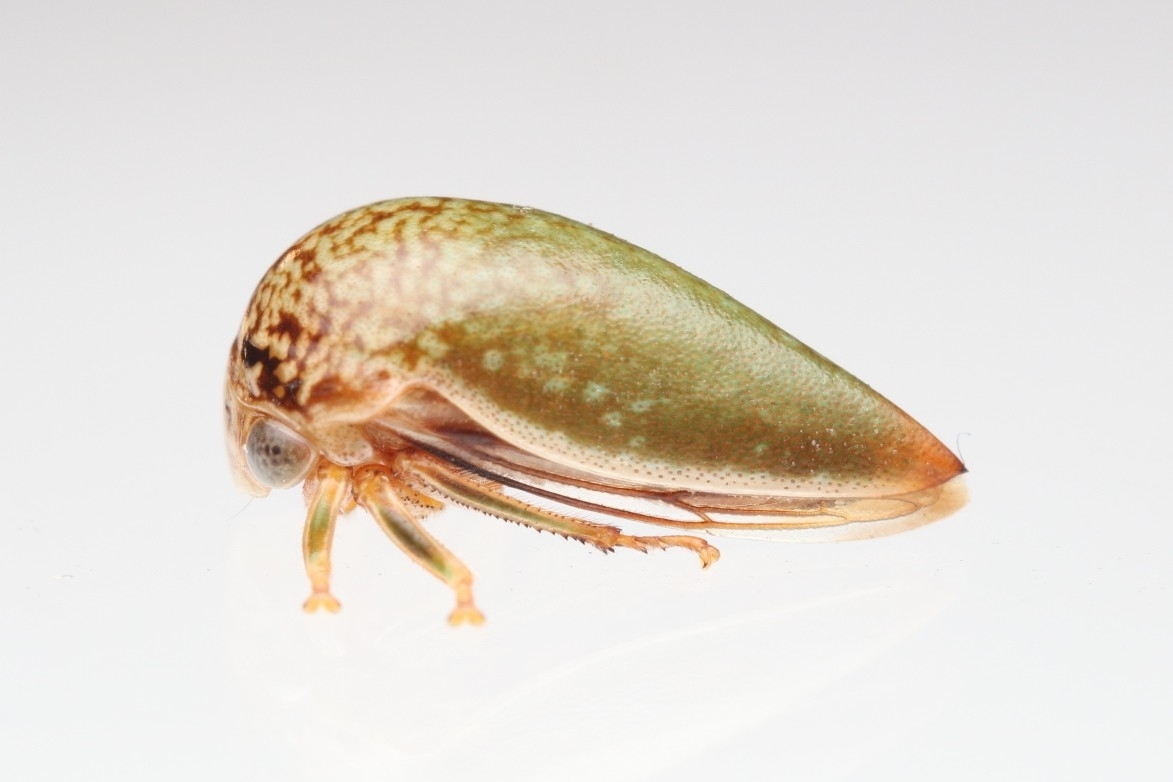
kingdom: Animalia
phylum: Arthropoda
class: Insecta
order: Hemiptera
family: Membracidae
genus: Stictopelta
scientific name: Stictopelta marmorata
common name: Treehopper
